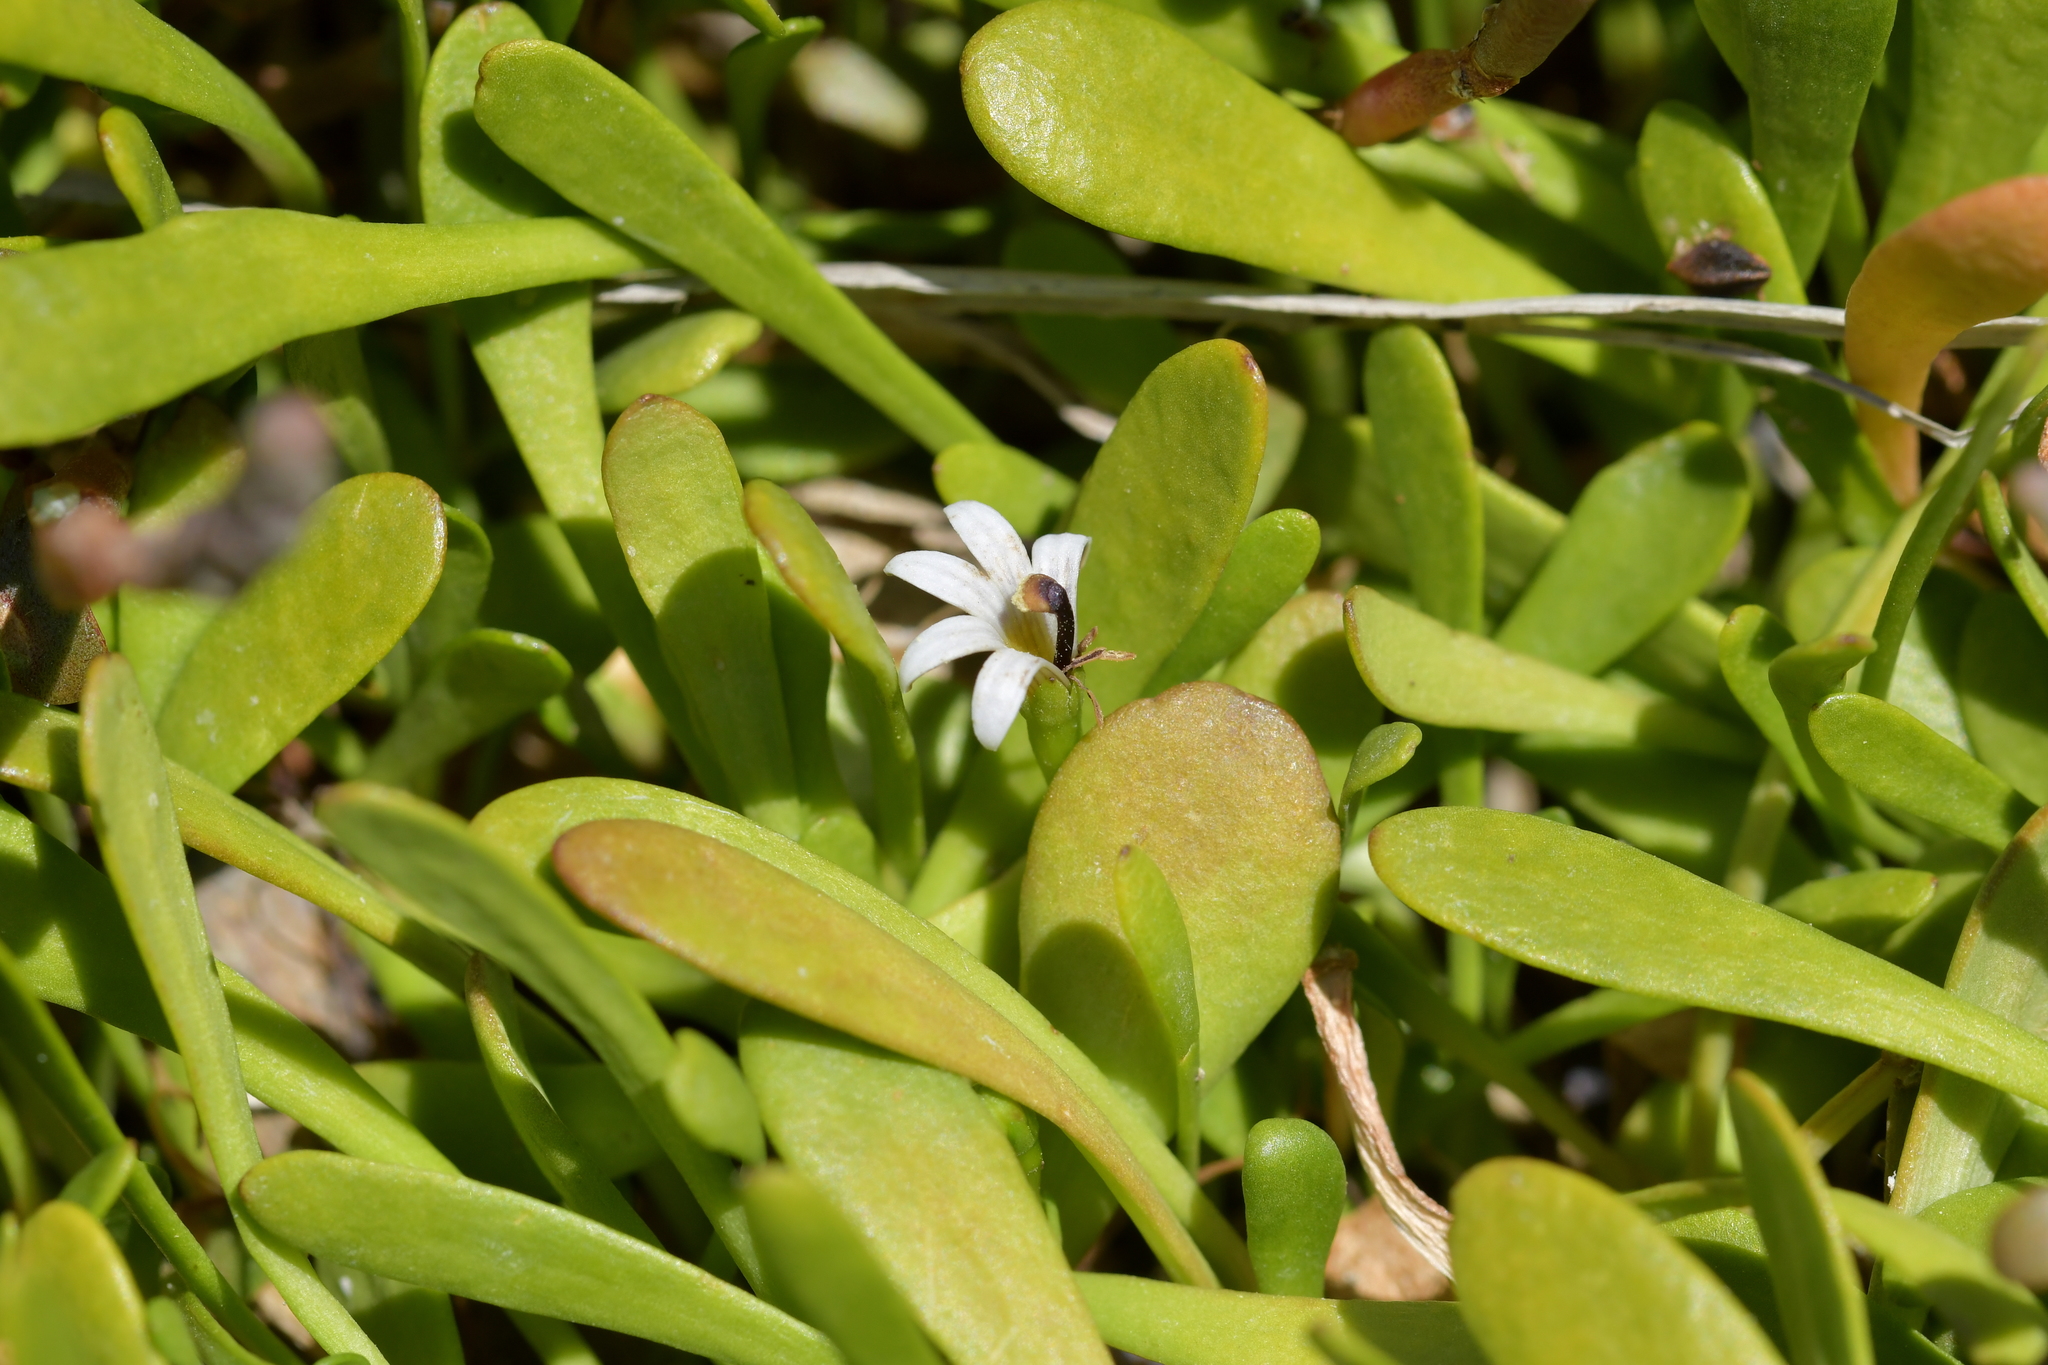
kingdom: Plantae
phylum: Tracheophyta
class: Magnoliopsida
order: Asterales
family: Goodeniaceae
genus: Goodenia
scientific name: Goodenia radicans
